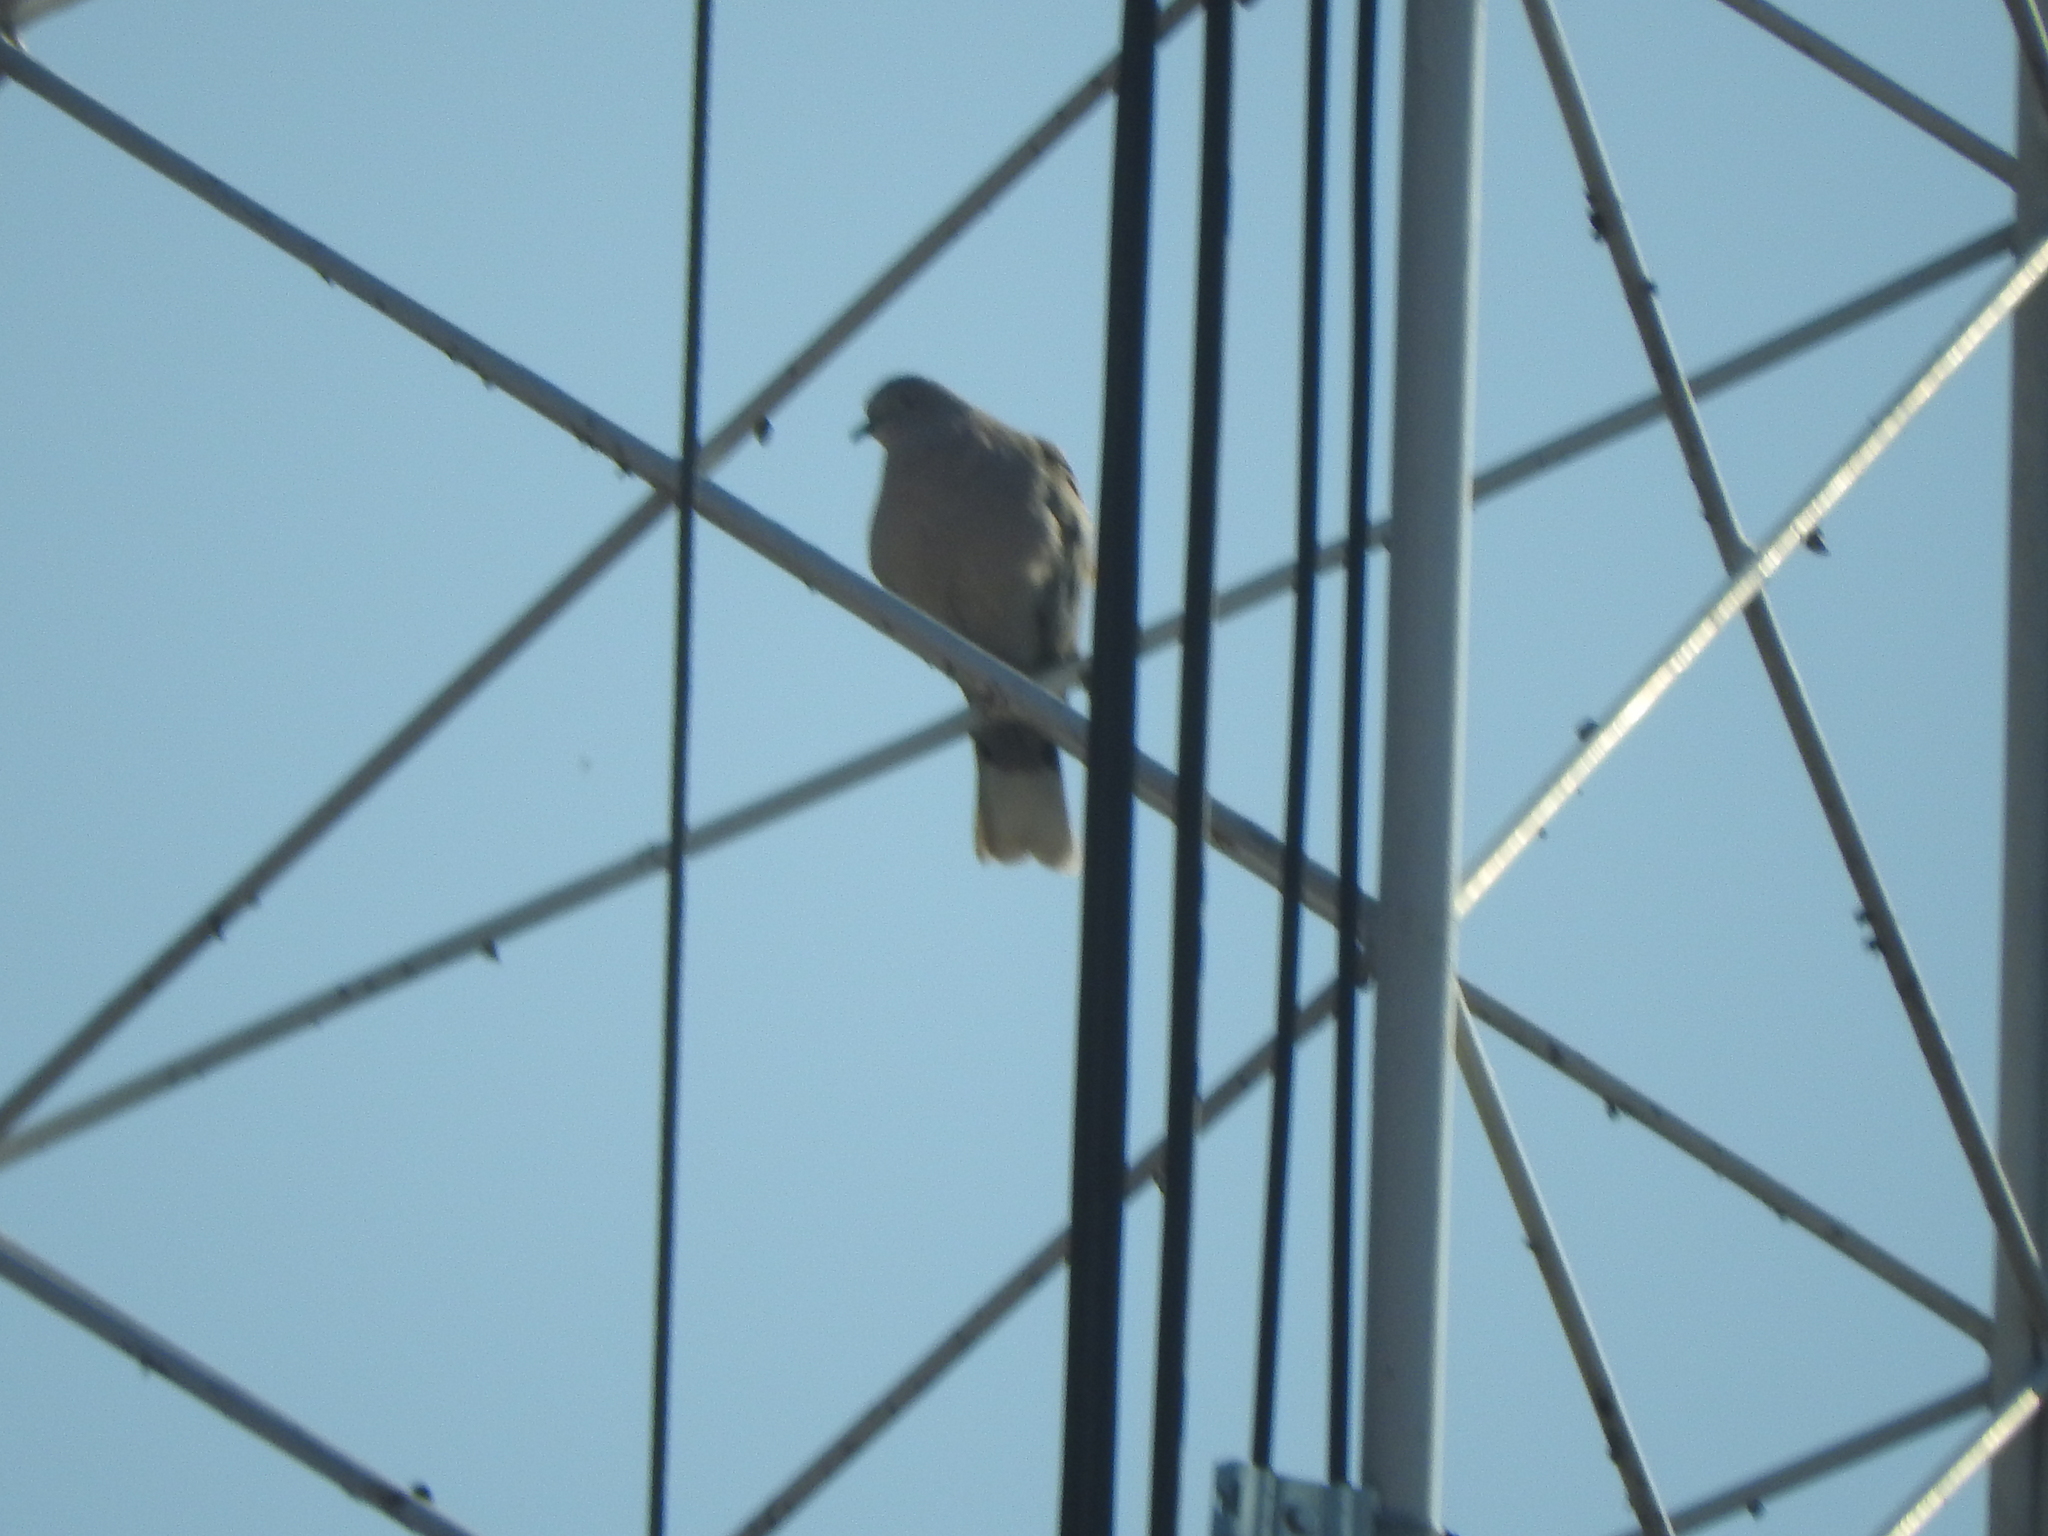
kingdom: Animalia
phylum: Chordata
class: Aves
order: Columbiformes
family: Columbidae
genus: Streptopelia
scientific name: Streptopelia decaocto
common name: Eurasian collared dove
